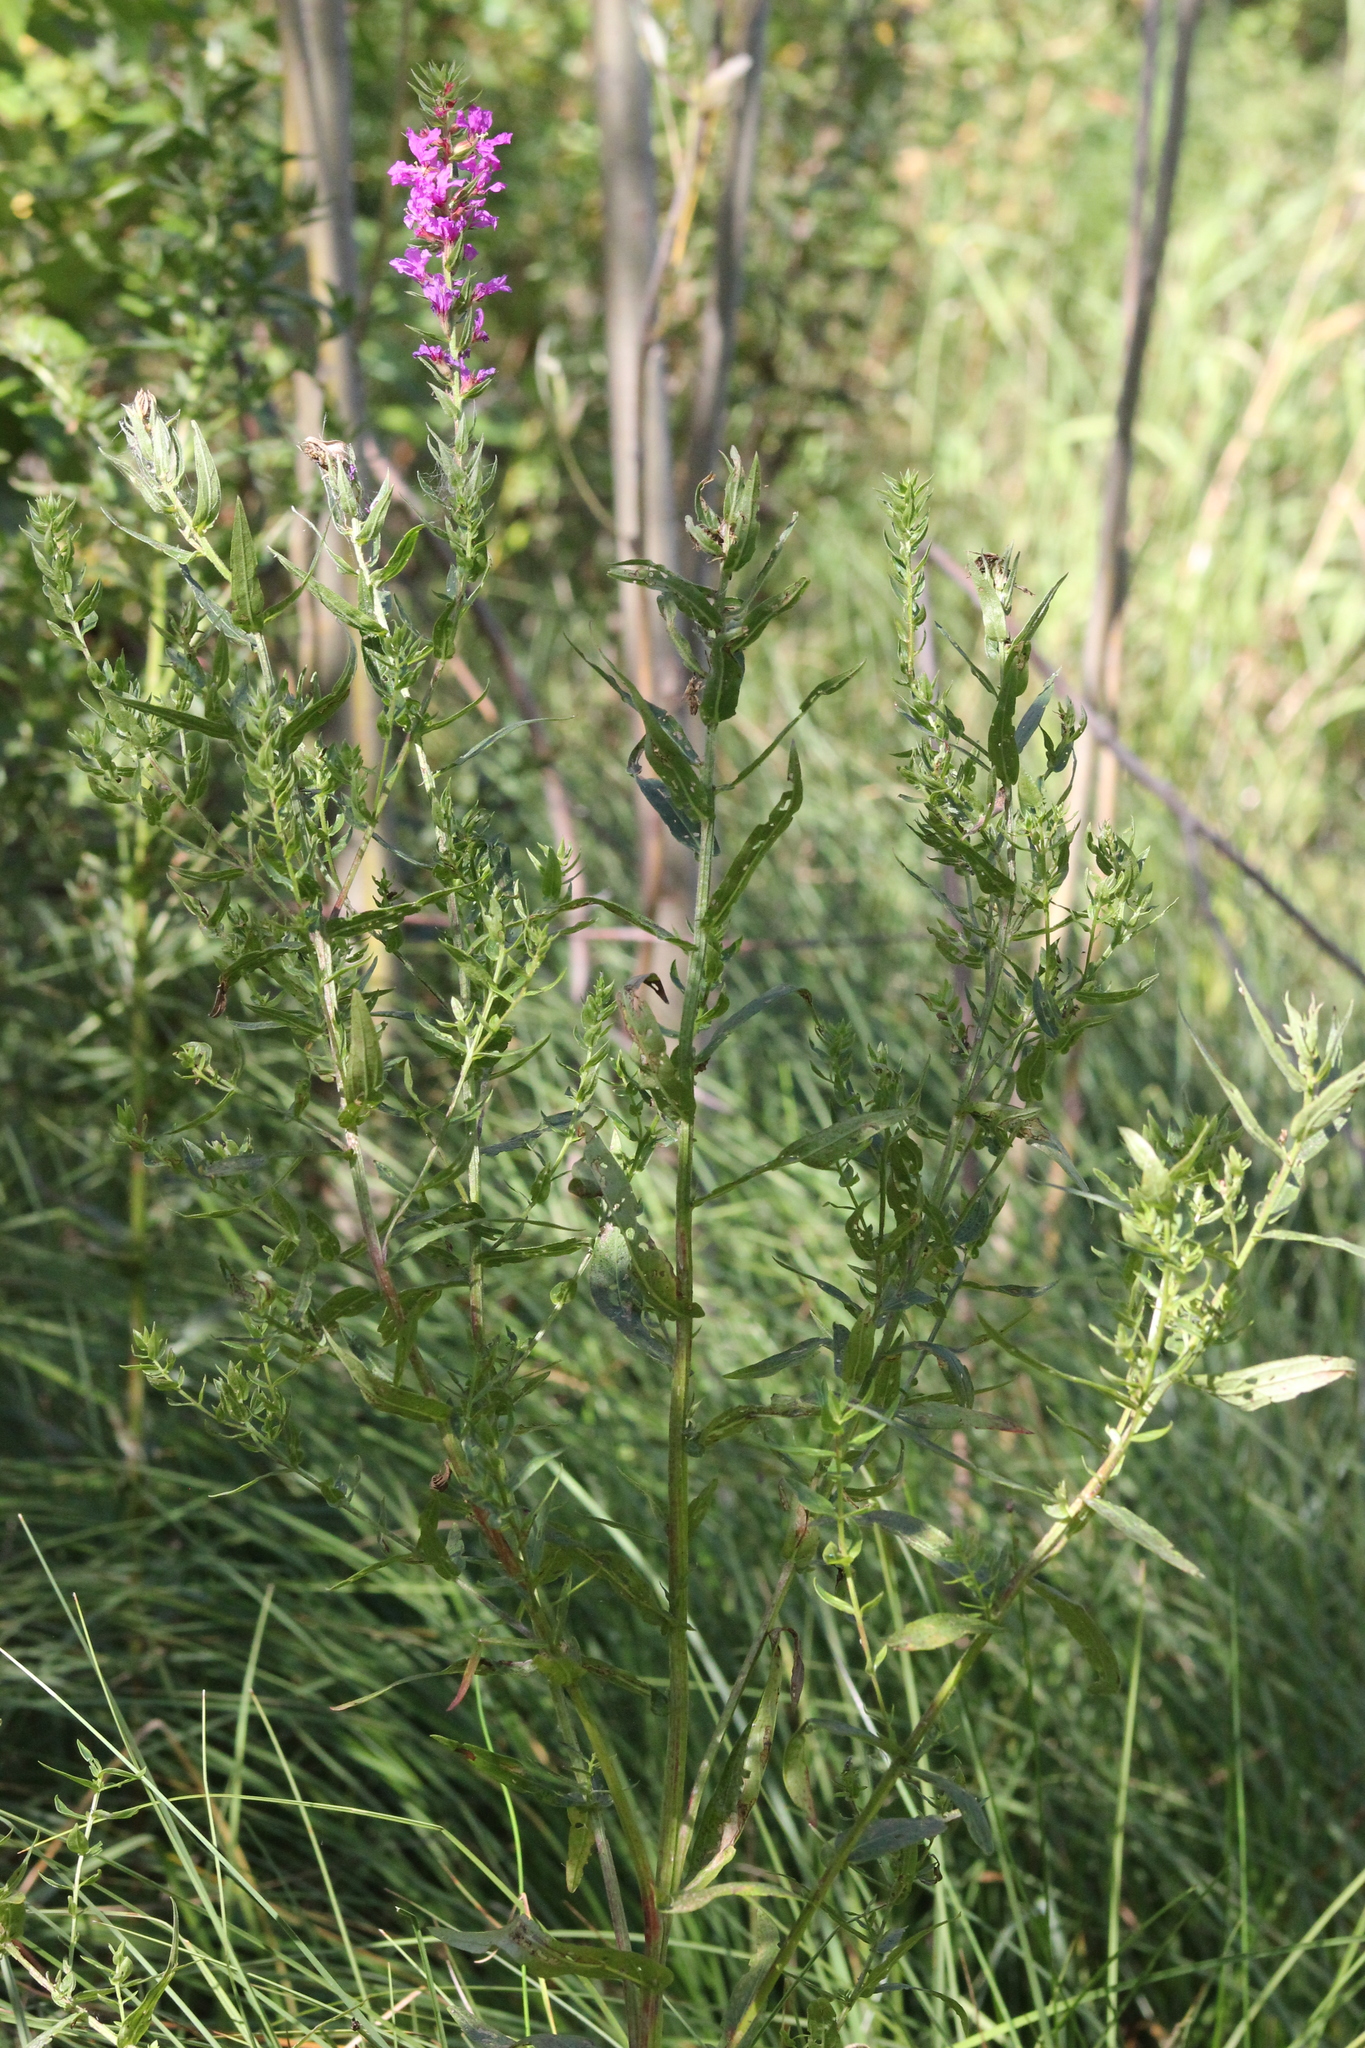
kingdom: Plantae
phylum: Tracheophyta
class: Magnoliopsida
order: Myrtales
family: Lythraceae
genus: Lythrum
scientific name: Lythrum salicaria
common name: Purple loosestrife
